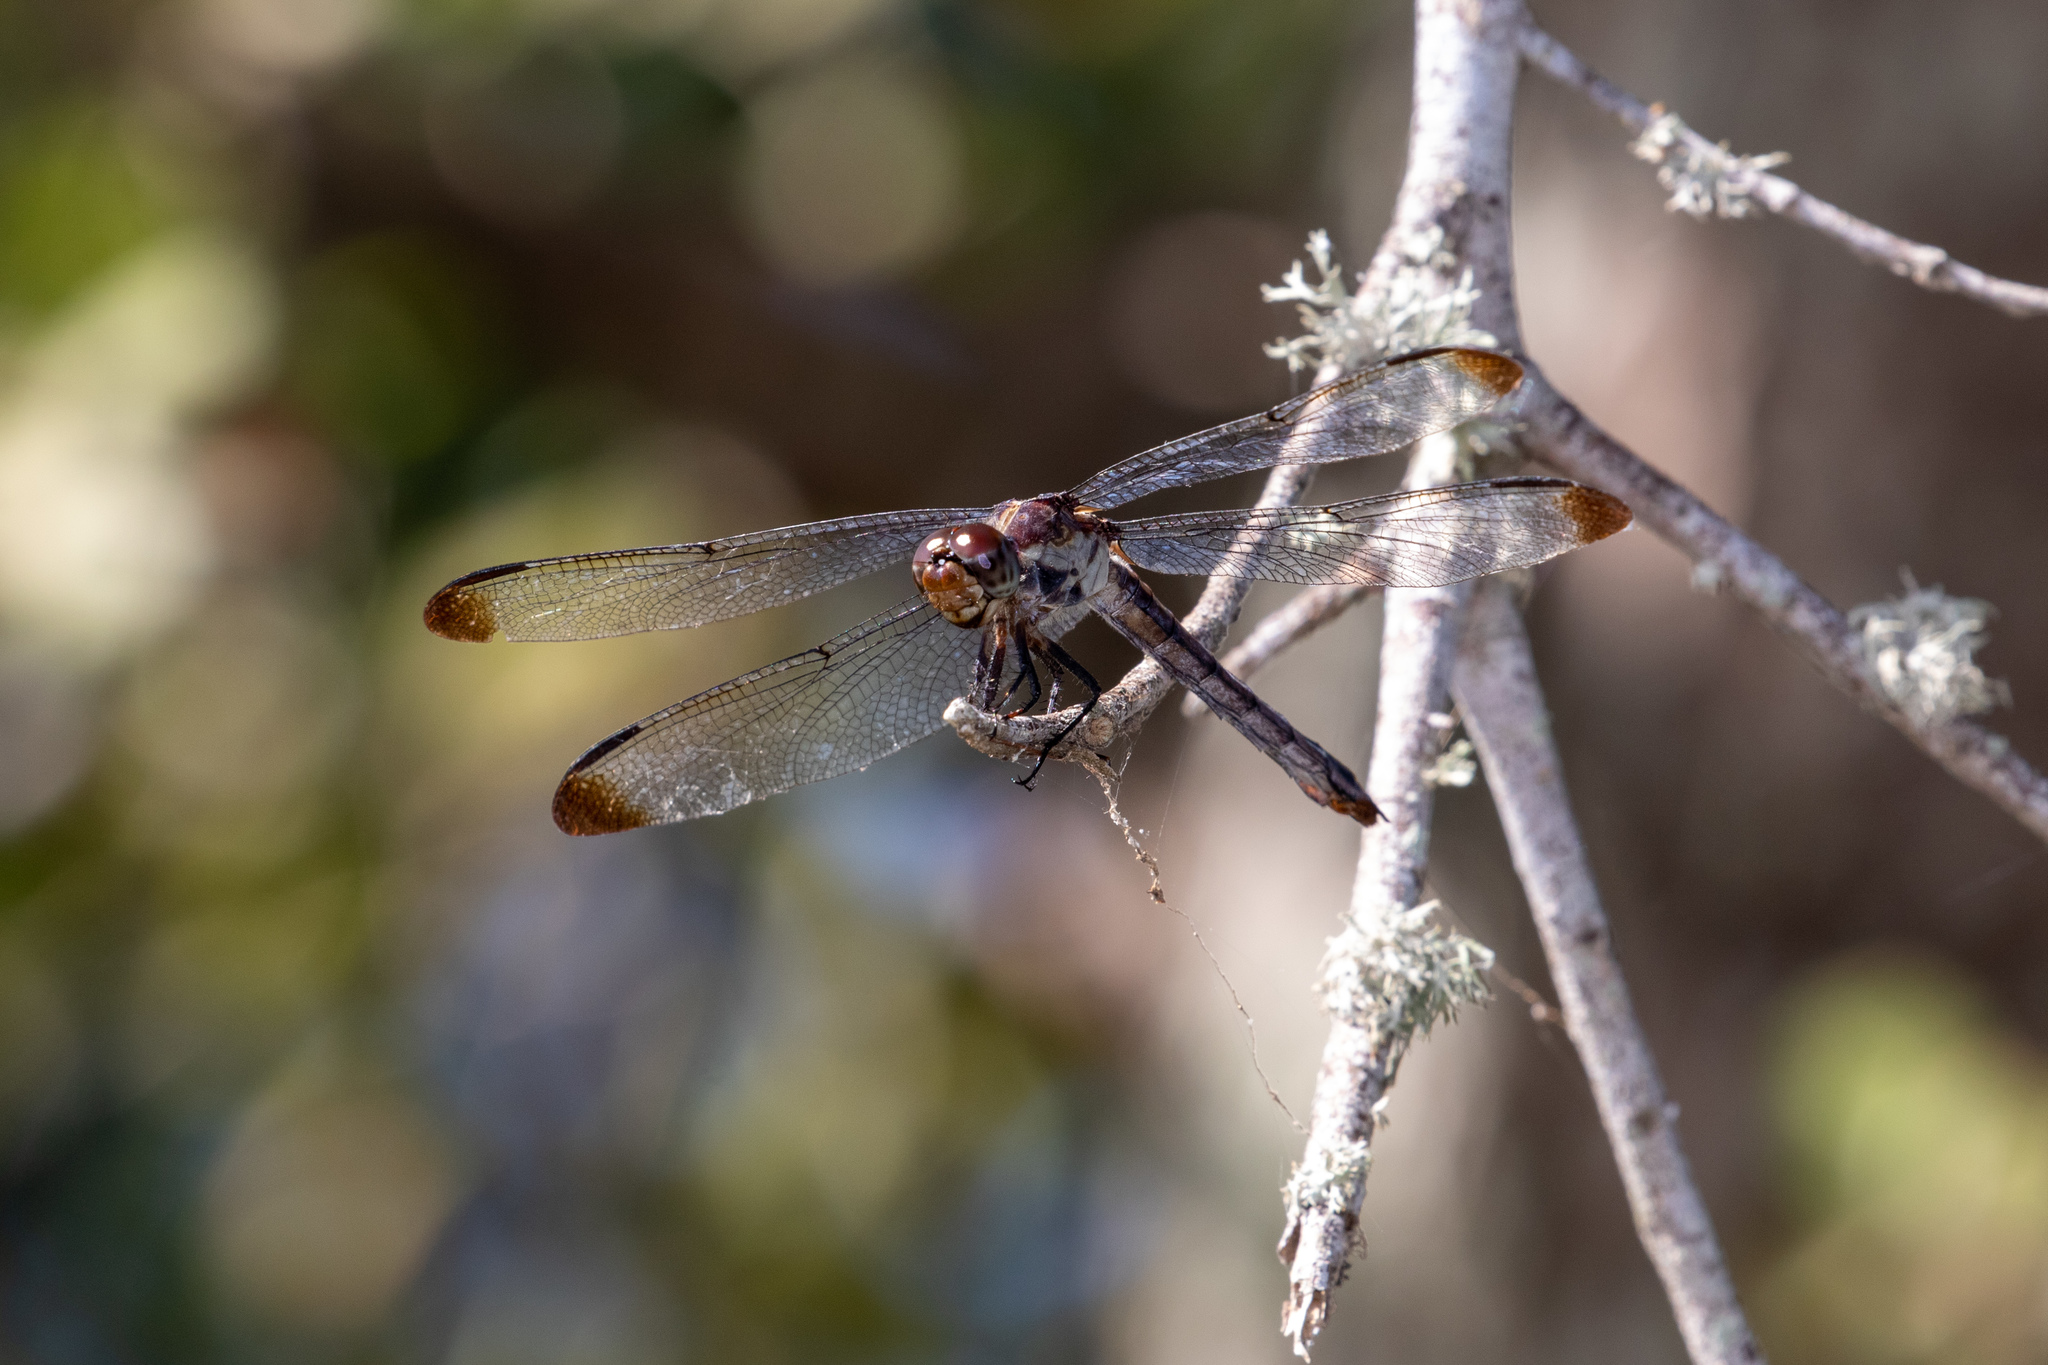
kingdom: Animalia
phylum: Arthropoda
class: Insecta
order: Odonata
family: Libellulidae
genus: Libellula
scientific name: Libellula incesta
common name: Slaty skimmer
